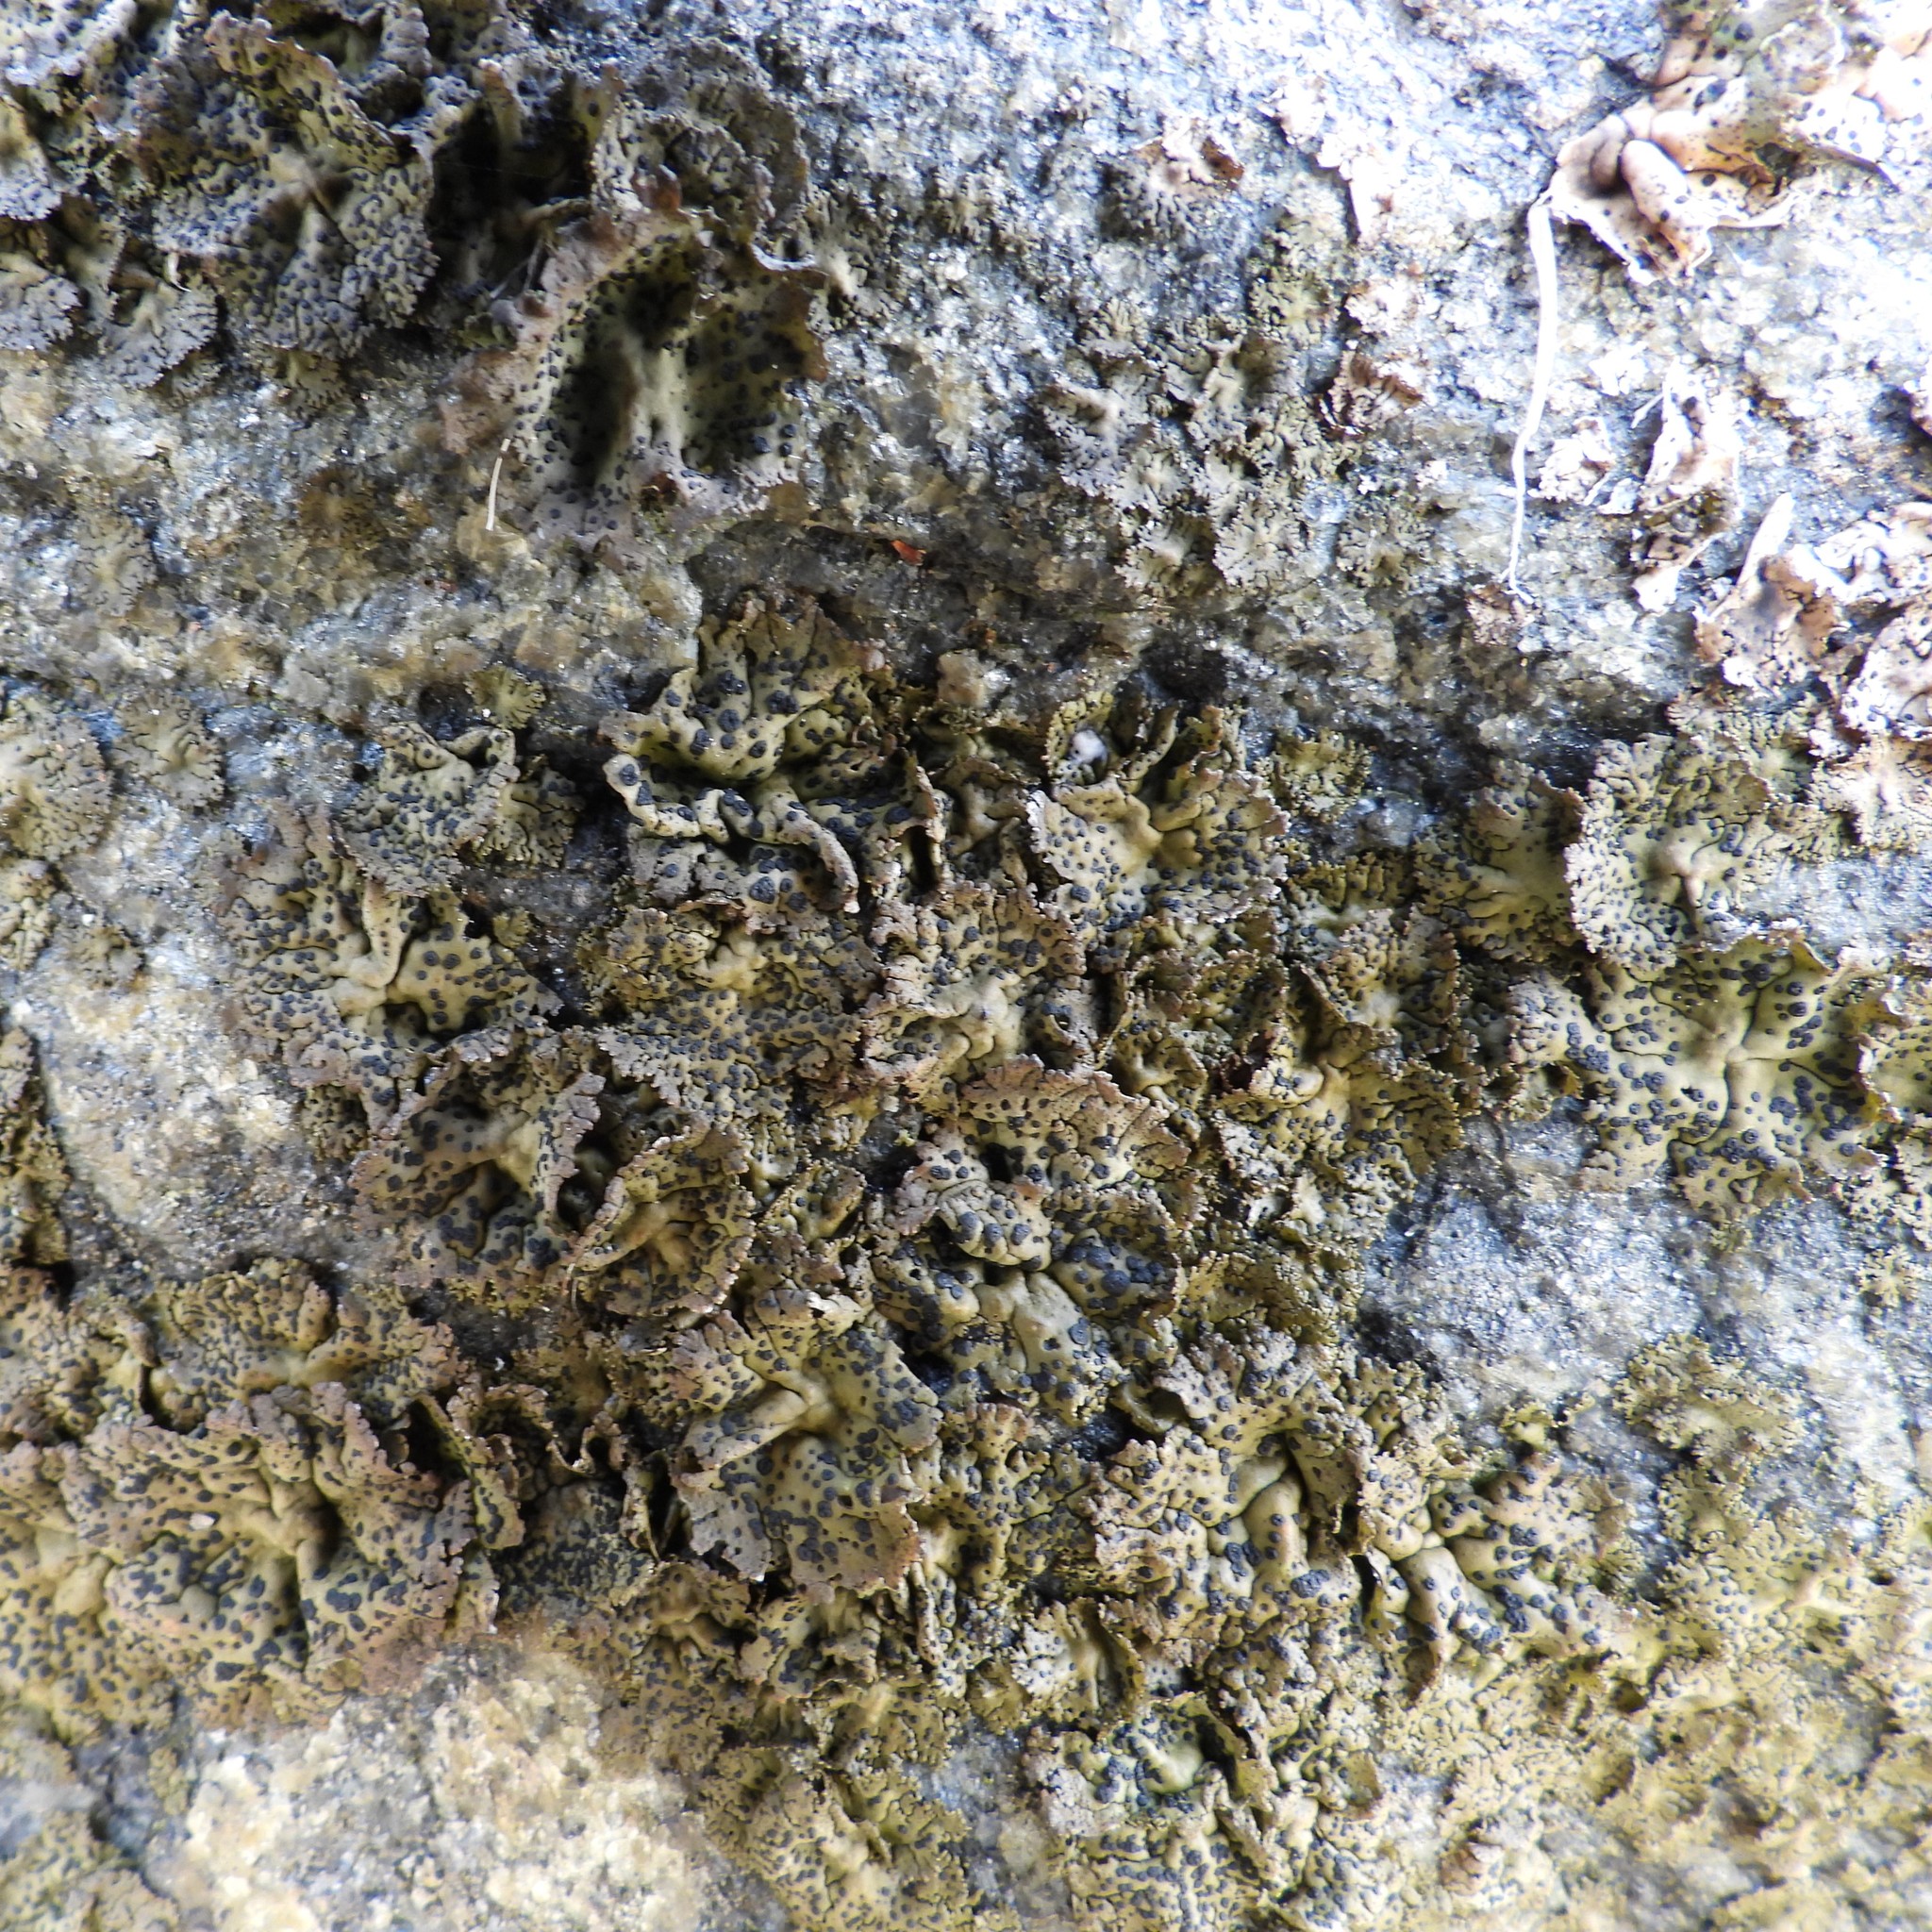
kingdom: Fungi
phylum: Ascomycota
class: Lecanoromycetes
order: Umbilicariales
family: Umbilicariaceae
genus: Umbilicaria
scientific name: Umbilicaria torrefacta
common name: Punctured rock tripe lichen
